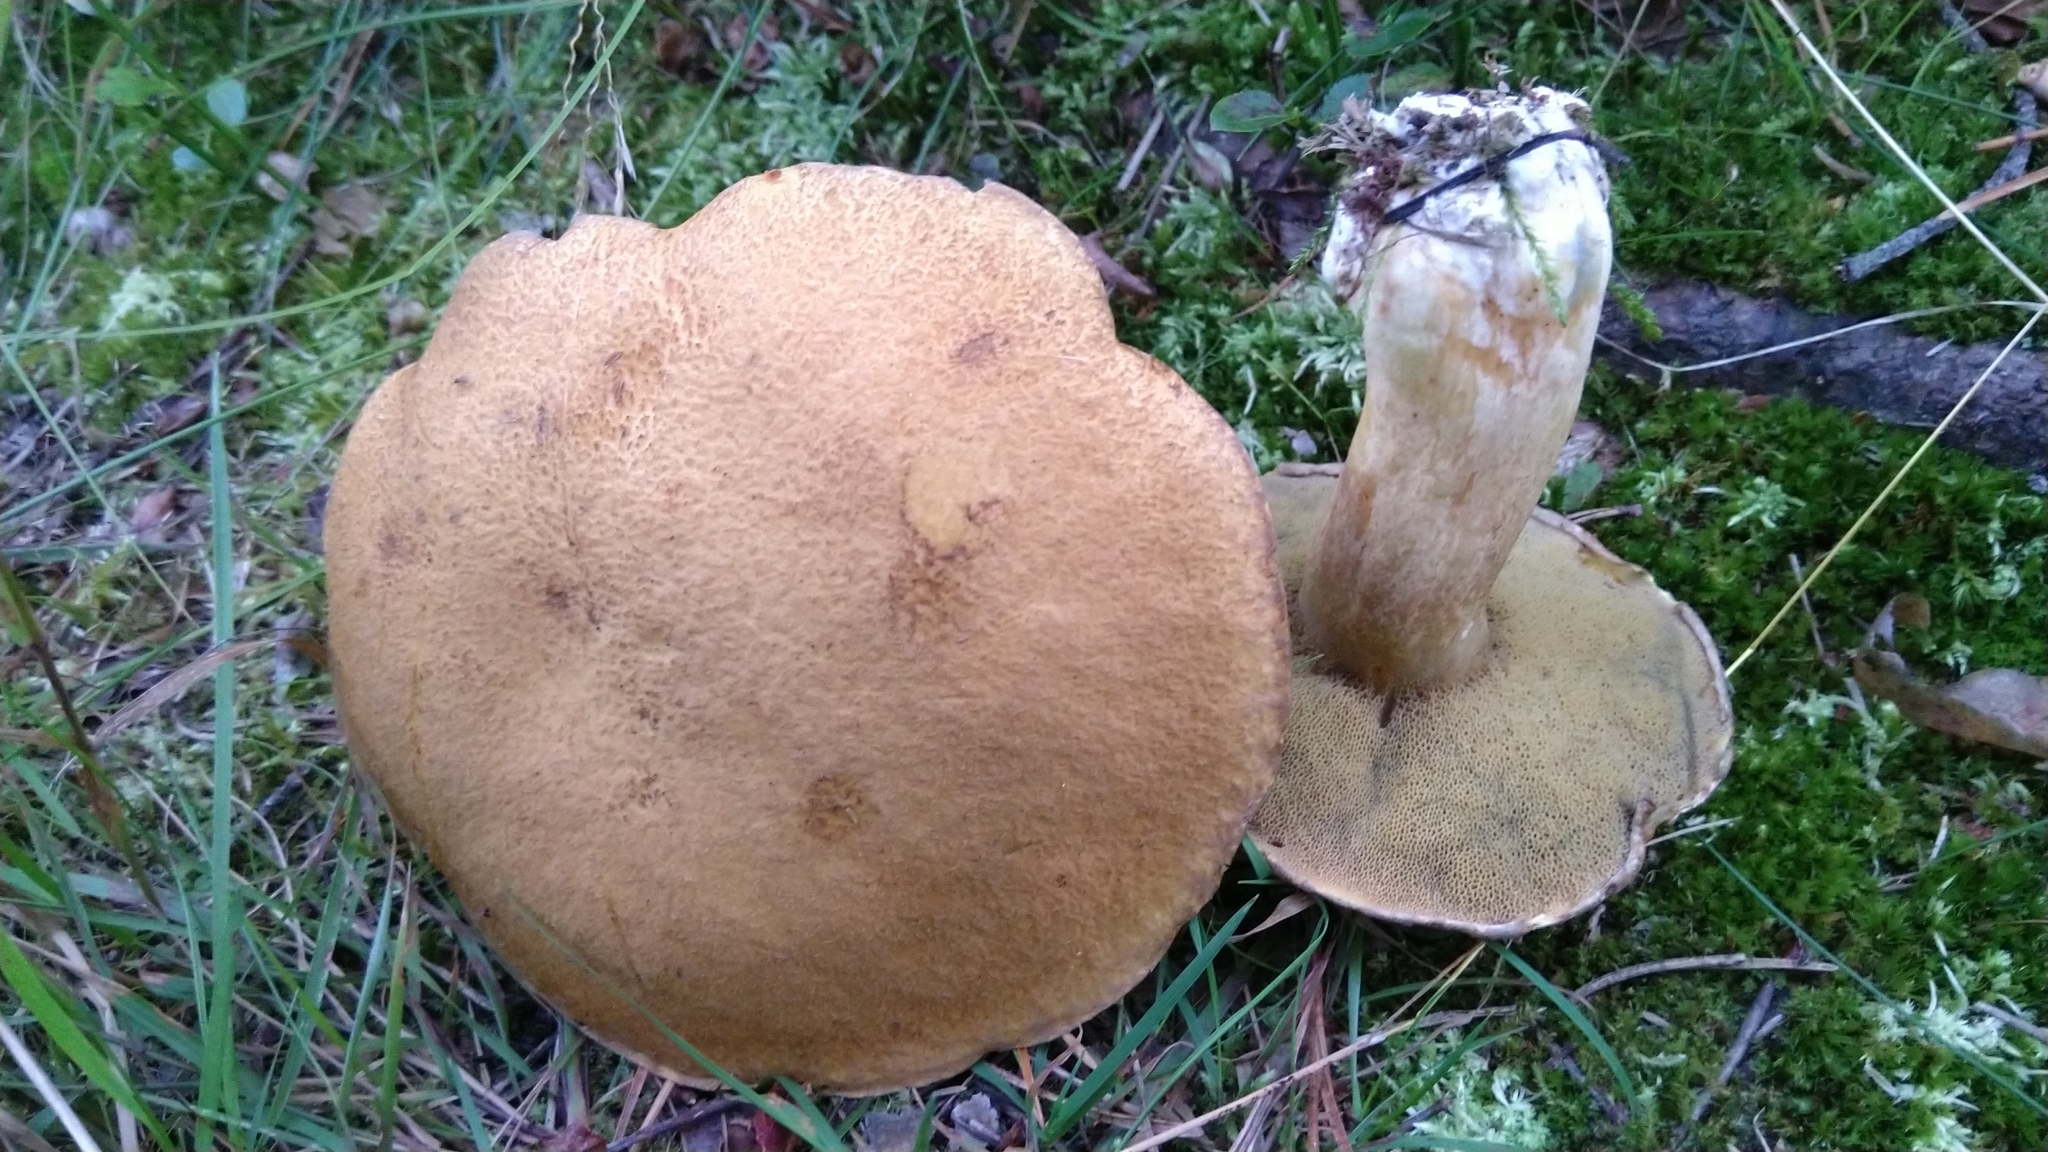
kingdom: Fungi
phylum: Basidiomycota
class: Agaricomycetes
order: Boletales
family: Suillaceae
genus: Suillus
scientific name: Suillus variegatus
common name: Velvet bolete
